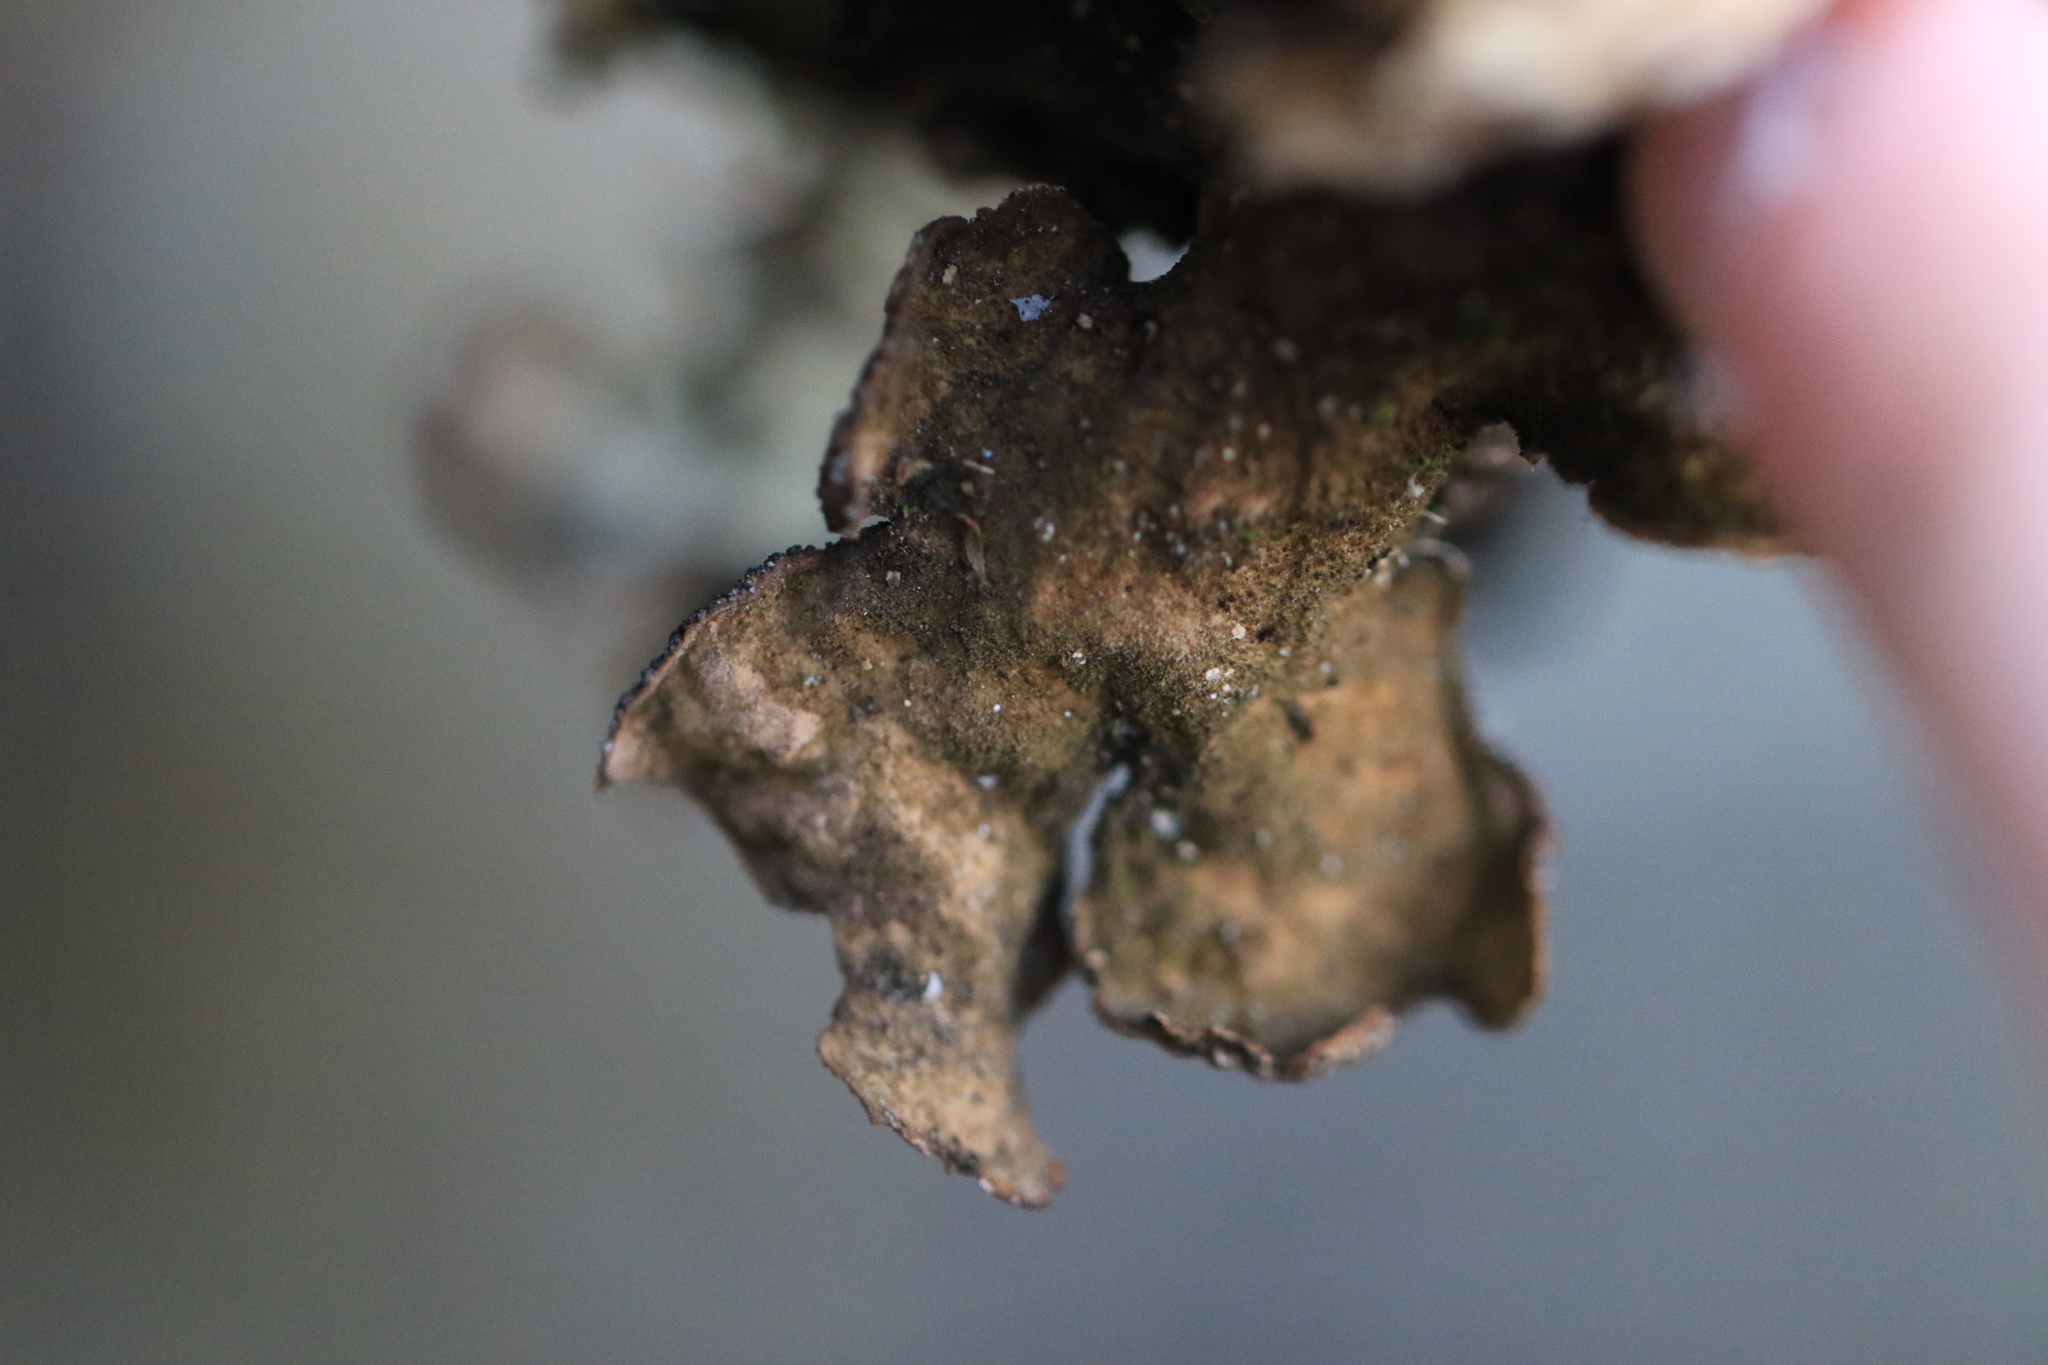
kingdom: Fungi
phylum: Ascomycota
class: Lecanoromycetes
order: Peltigerales
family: Lobariaceae
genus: Lobaria
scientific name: Lobaria anomala
